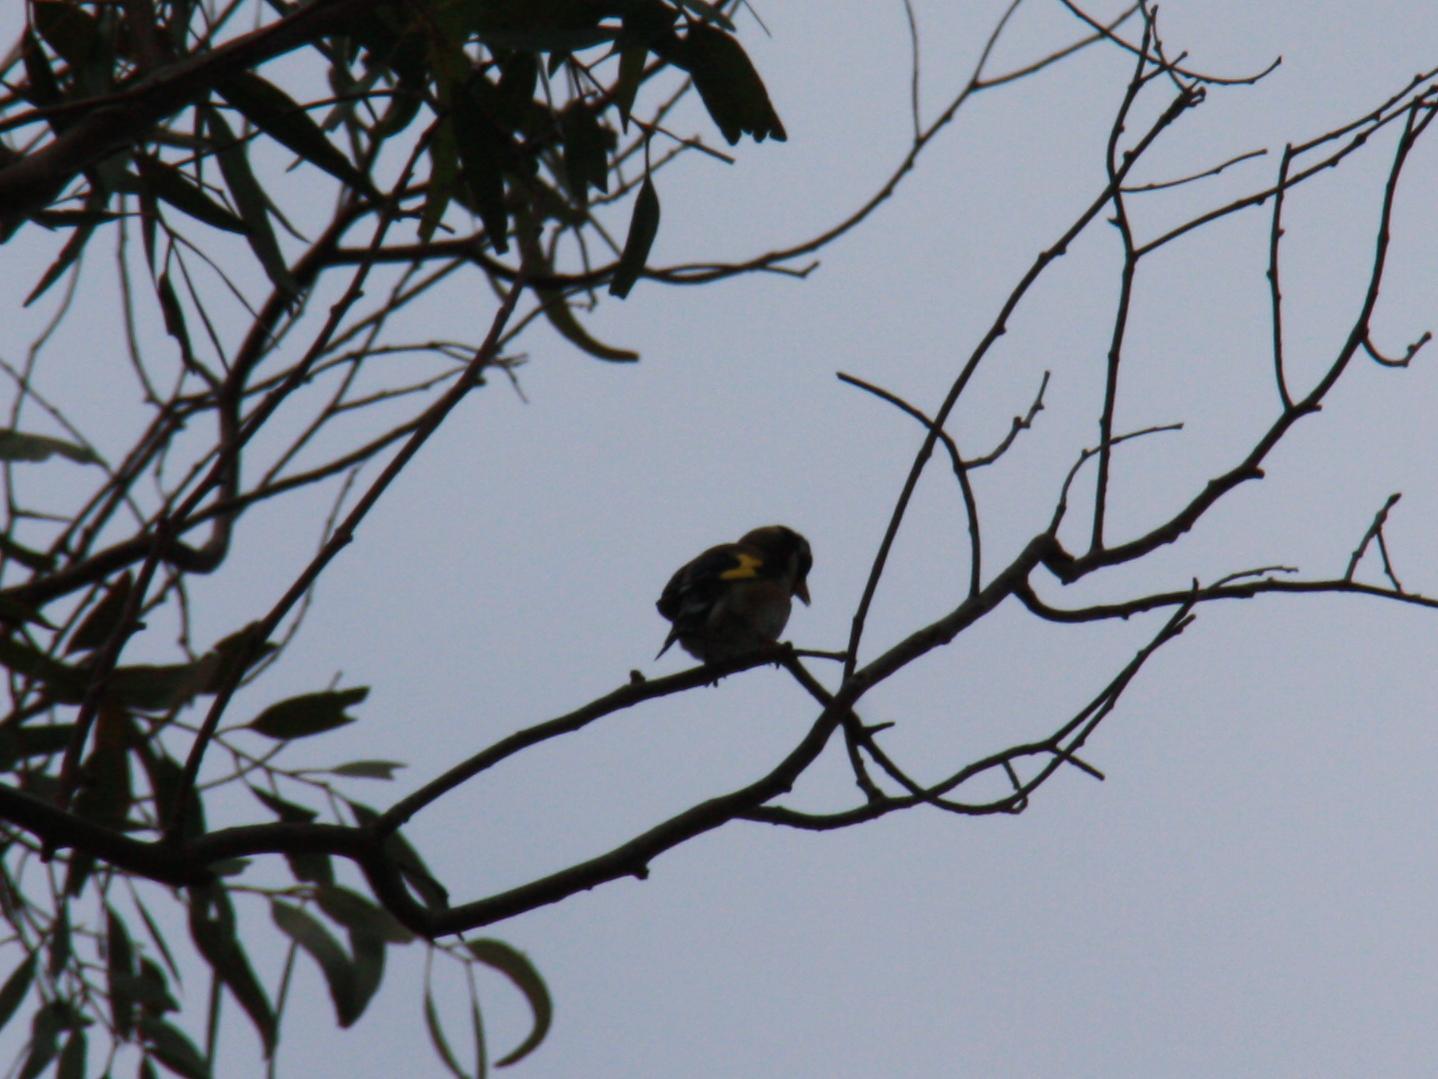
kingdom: Animalia
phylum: Chordata
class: Aves
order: Passeriformes
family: Fringillidae
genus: Carduelis
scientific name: Carduelis carduelis
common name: European goldfinch
